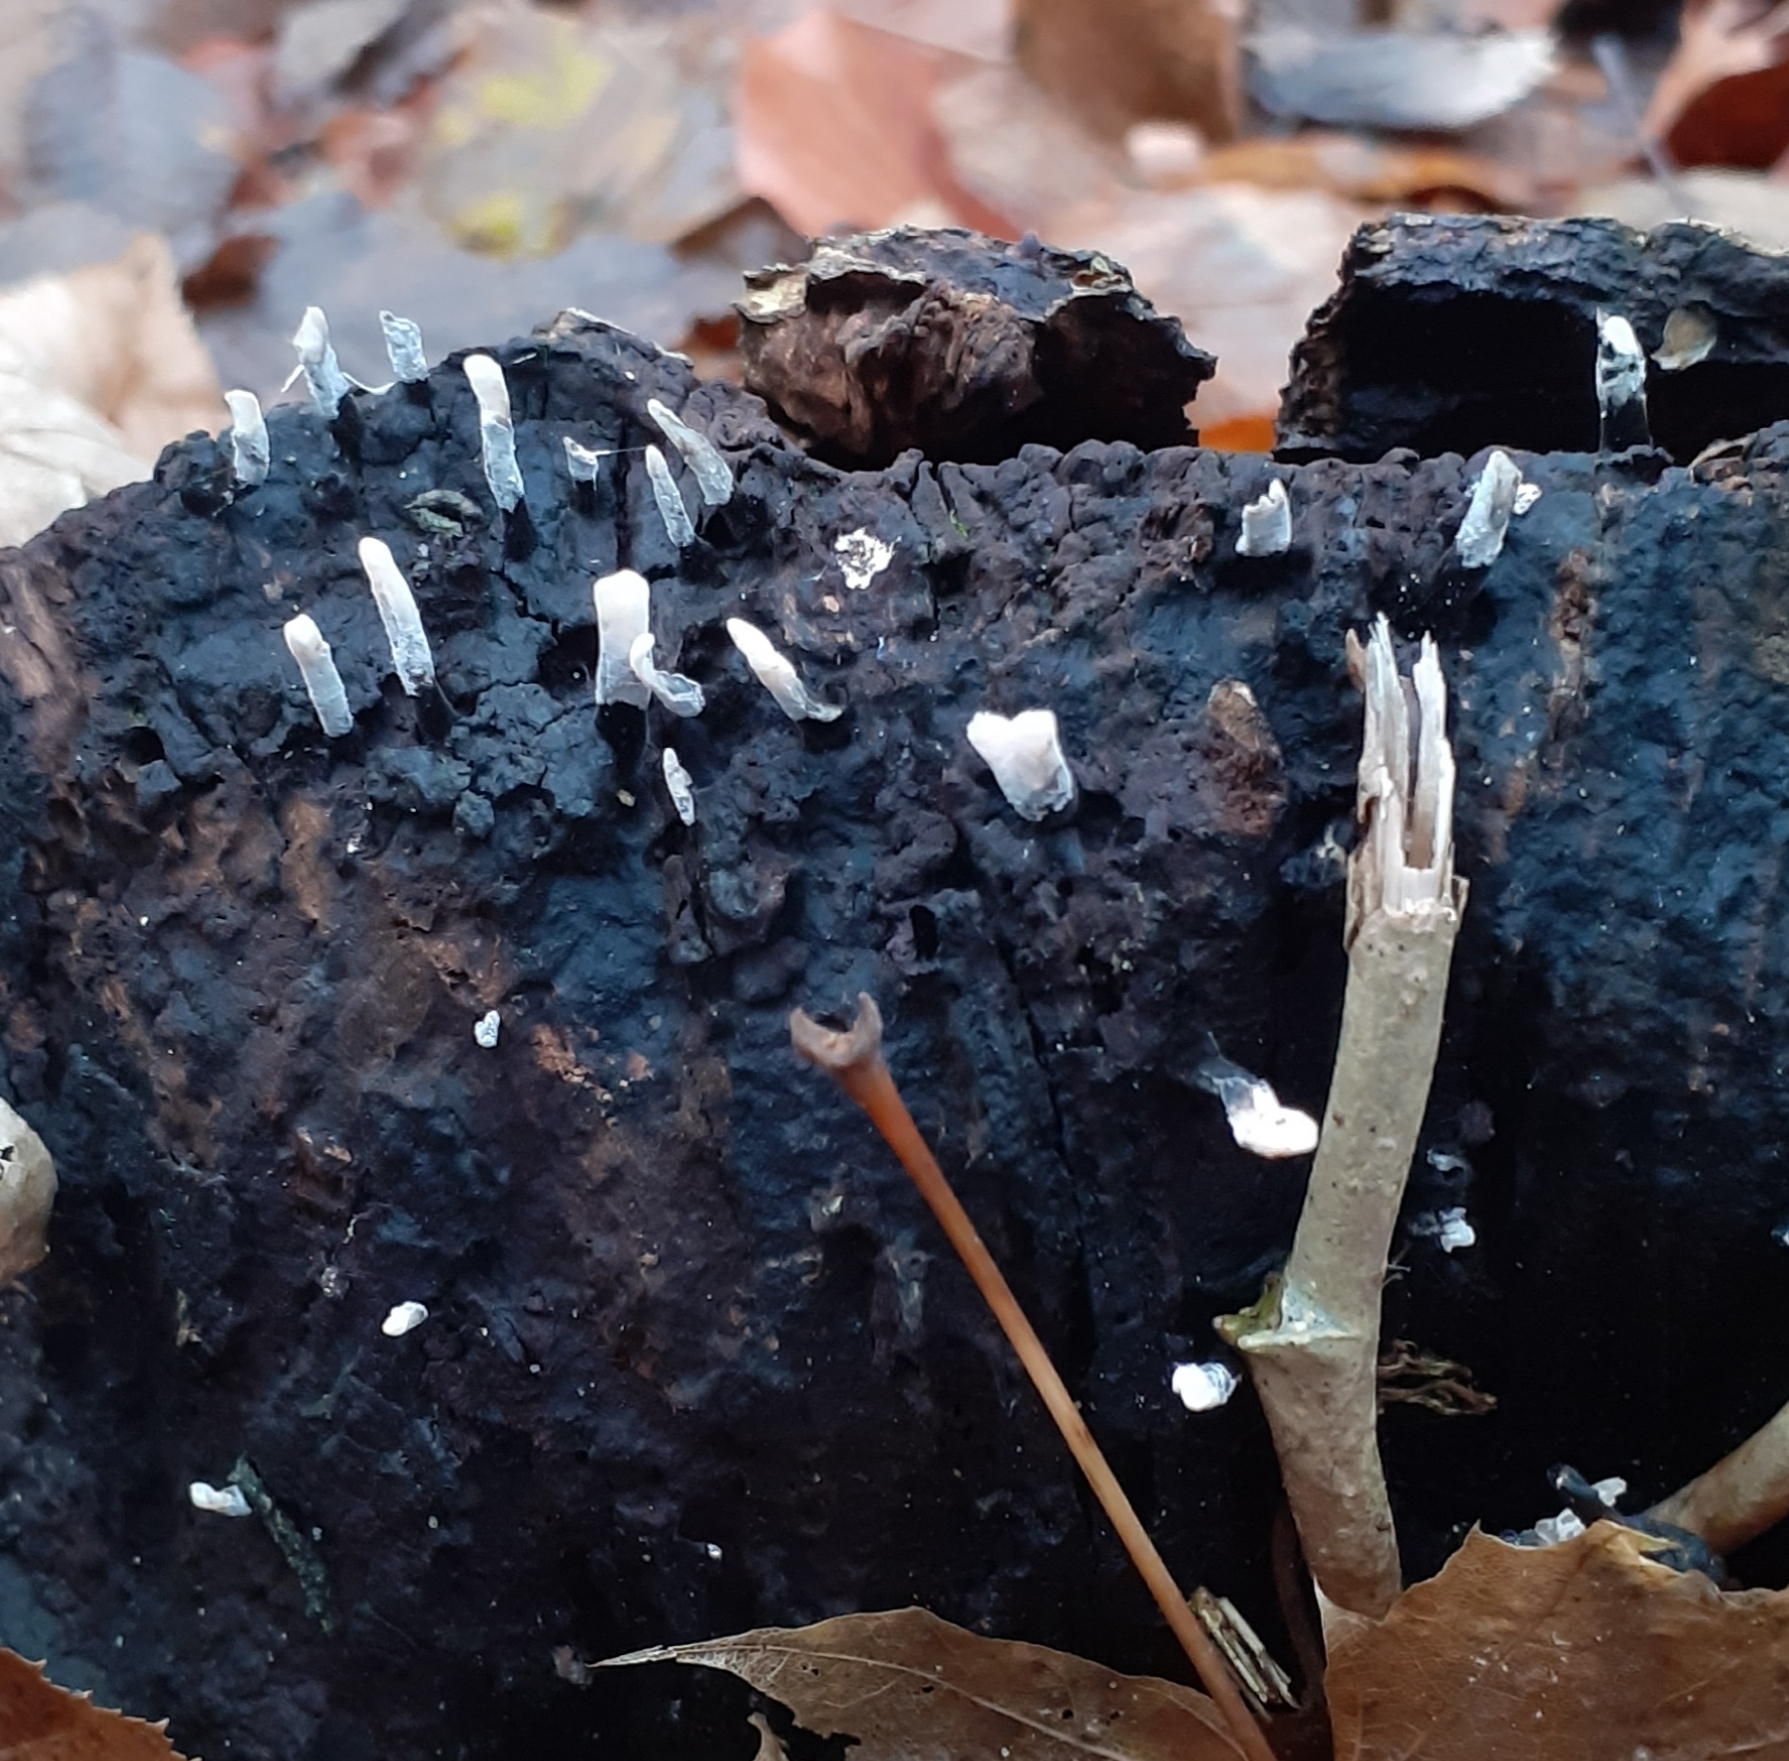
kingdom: Fungi
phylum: Ascomycota
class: Sordariomycetes
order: Xylariales
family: Xylariaceae
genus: Xylaria
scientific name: Xylaria hypoxylon
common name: Candle-snuff fungus
